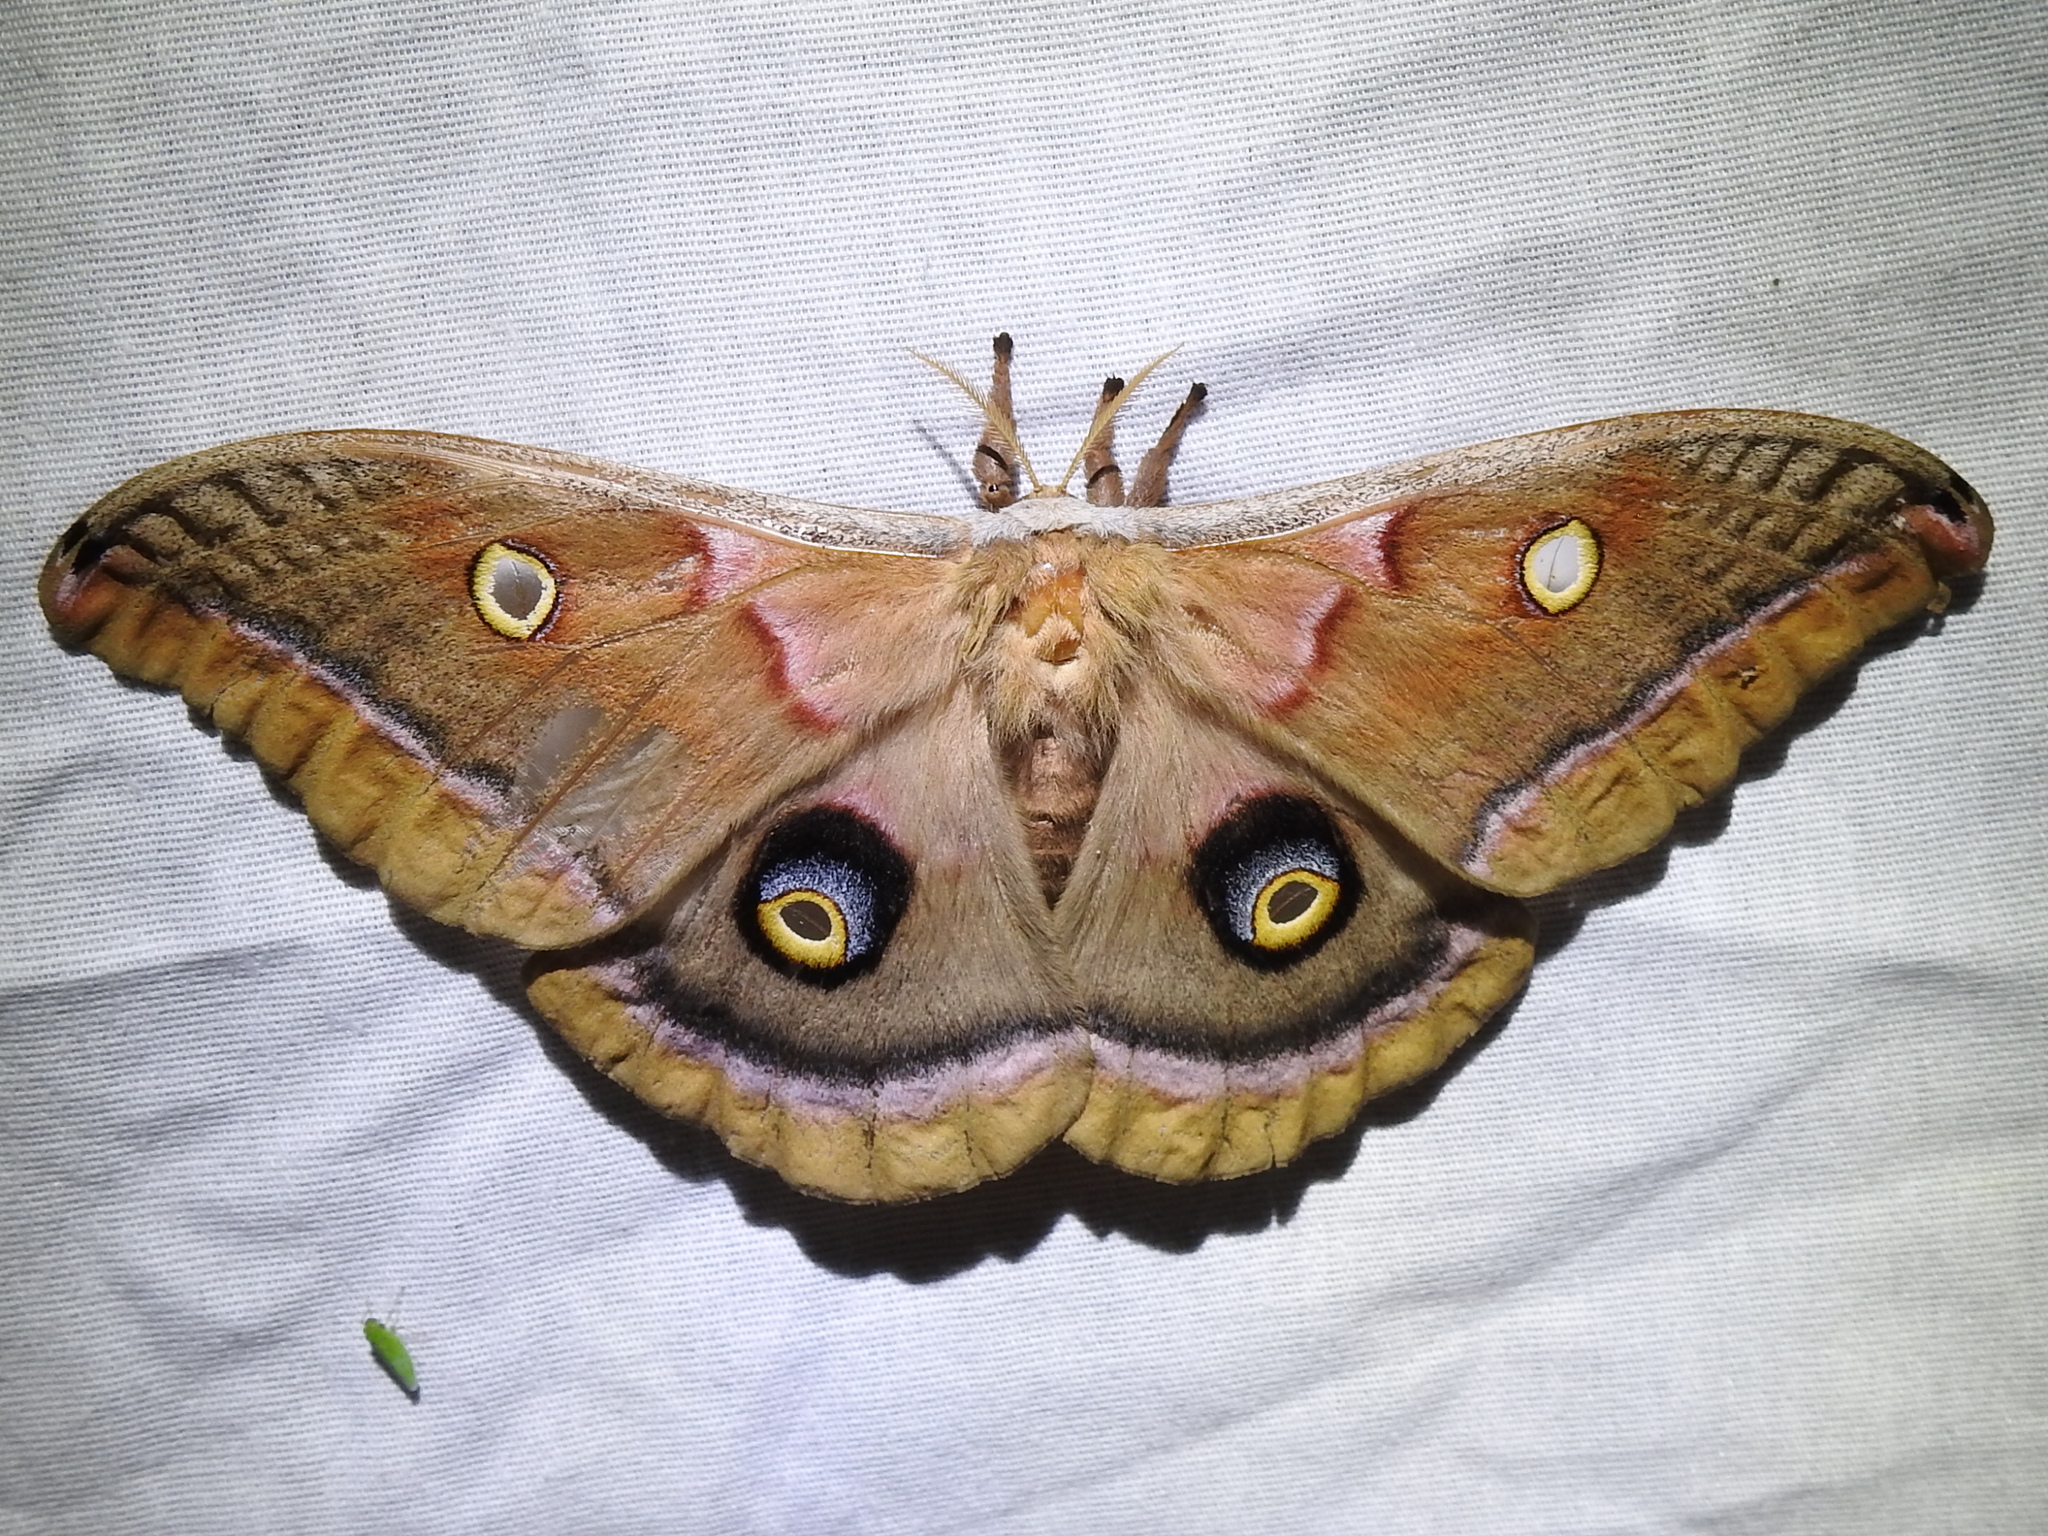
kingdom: Animalia
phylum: Arthropoda
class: Insecta
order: Lepidoptera
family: Saturniidae
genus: Antheraea
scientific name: Antheraea polyphemus
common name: Polyphemus moth
